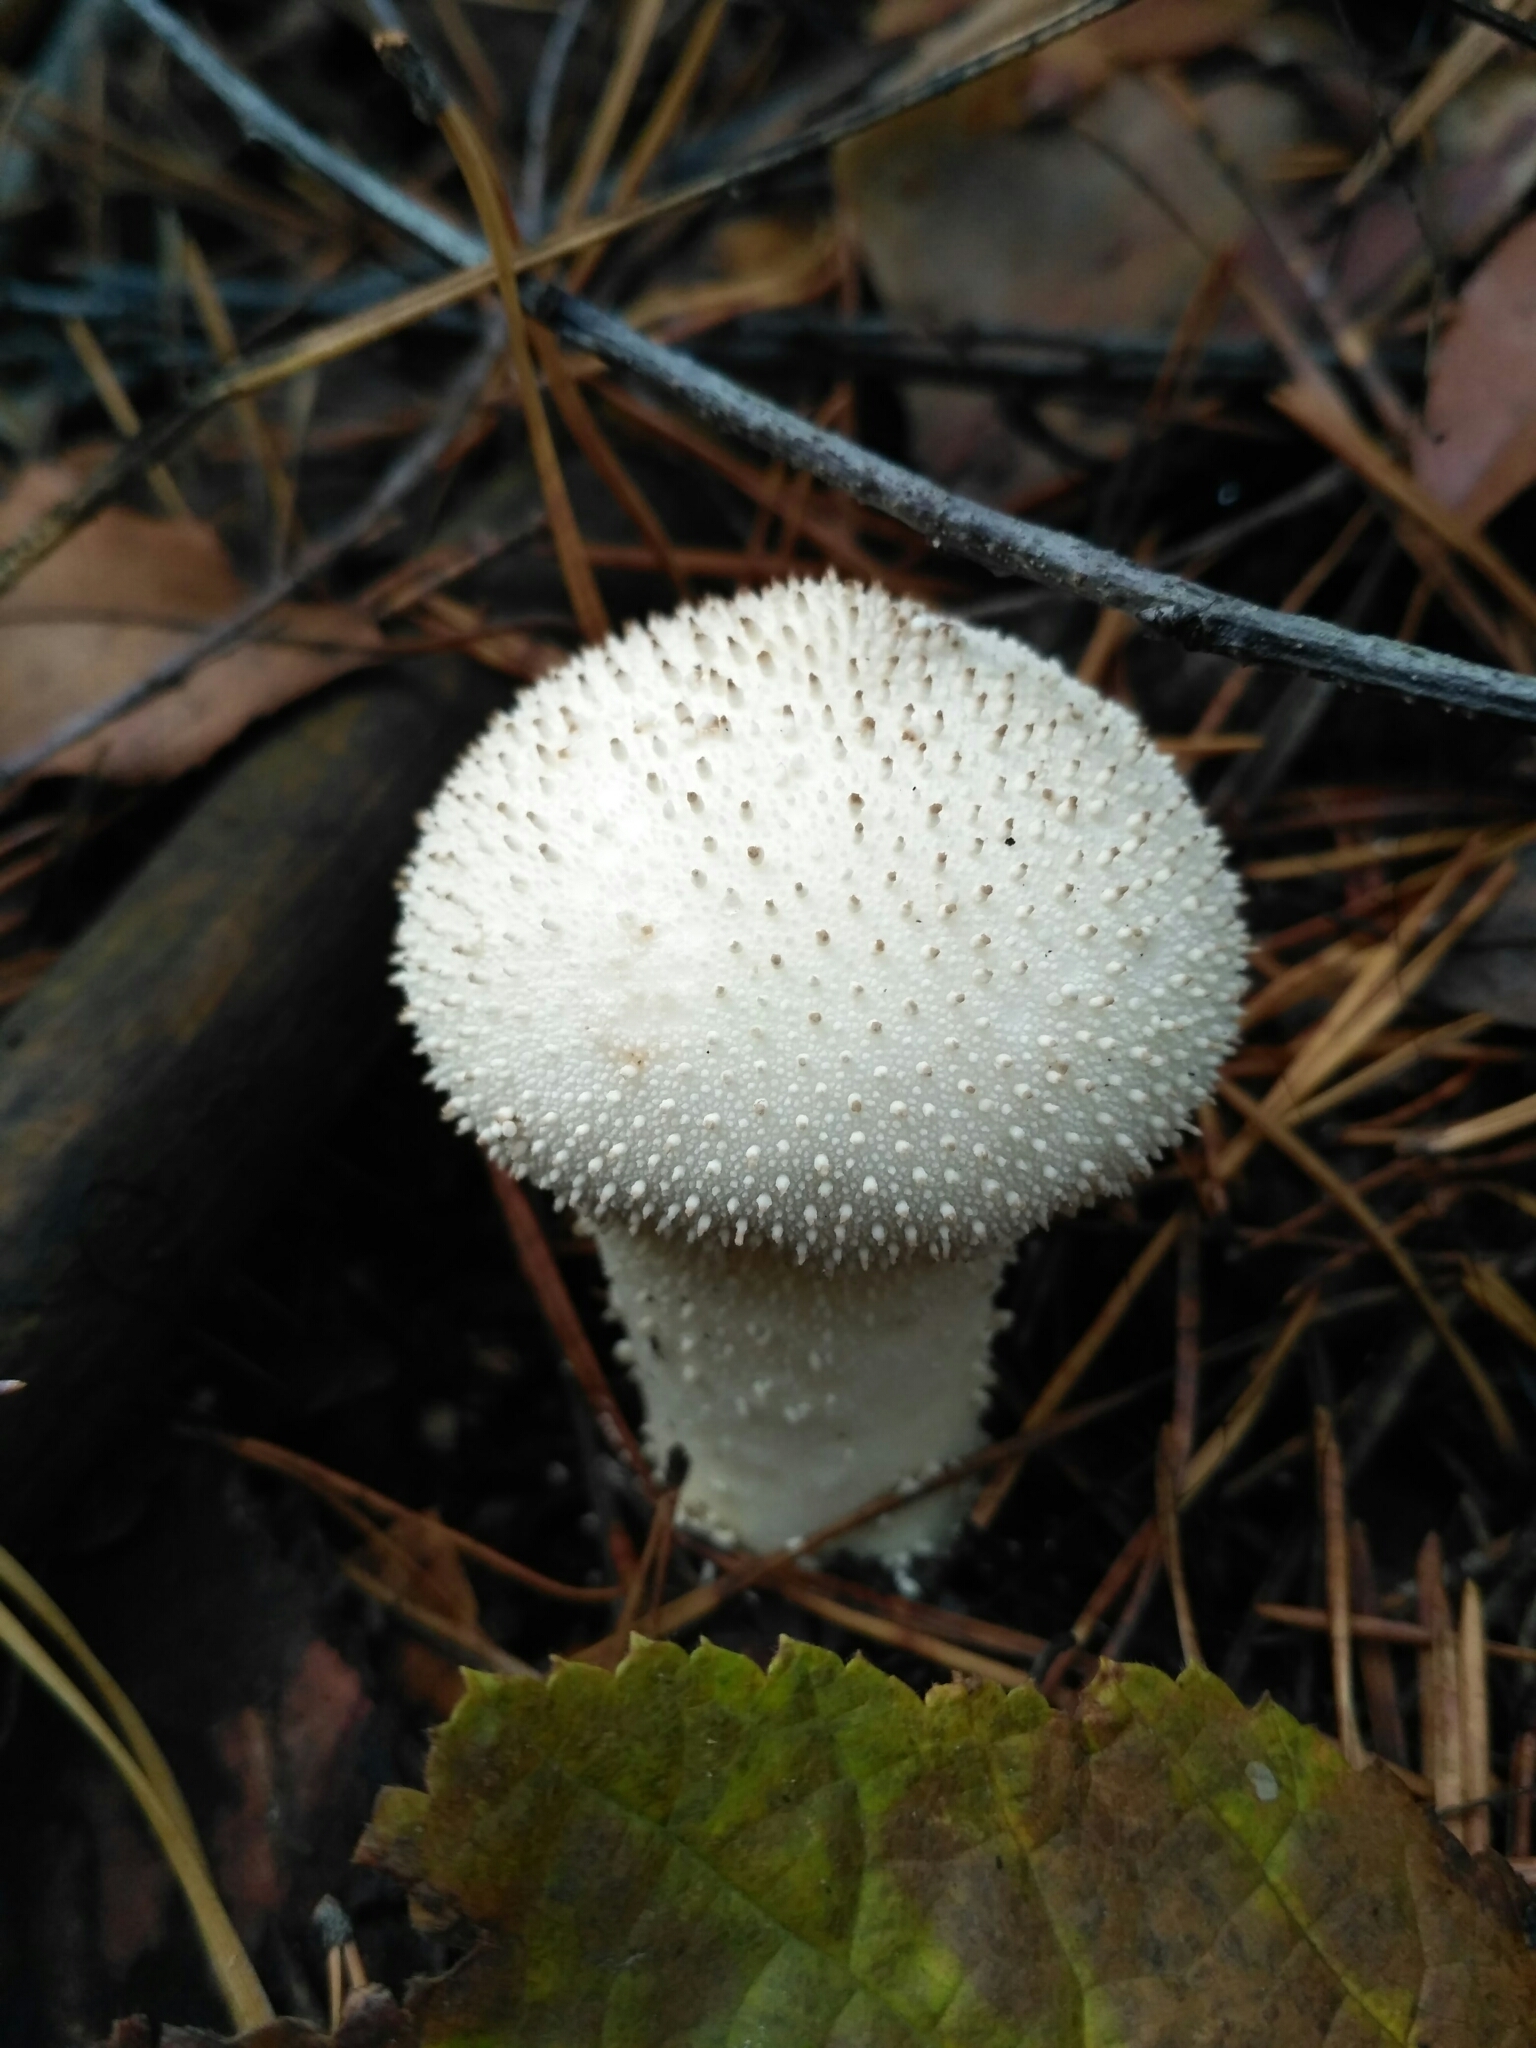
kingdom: Fungi
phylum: Basidiomycota
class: Agaricomycetes
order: Agaricales
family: Lycoperdaceae
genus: Lycoperdon
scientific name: Lycoperdon perlatum
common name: Common puffball
